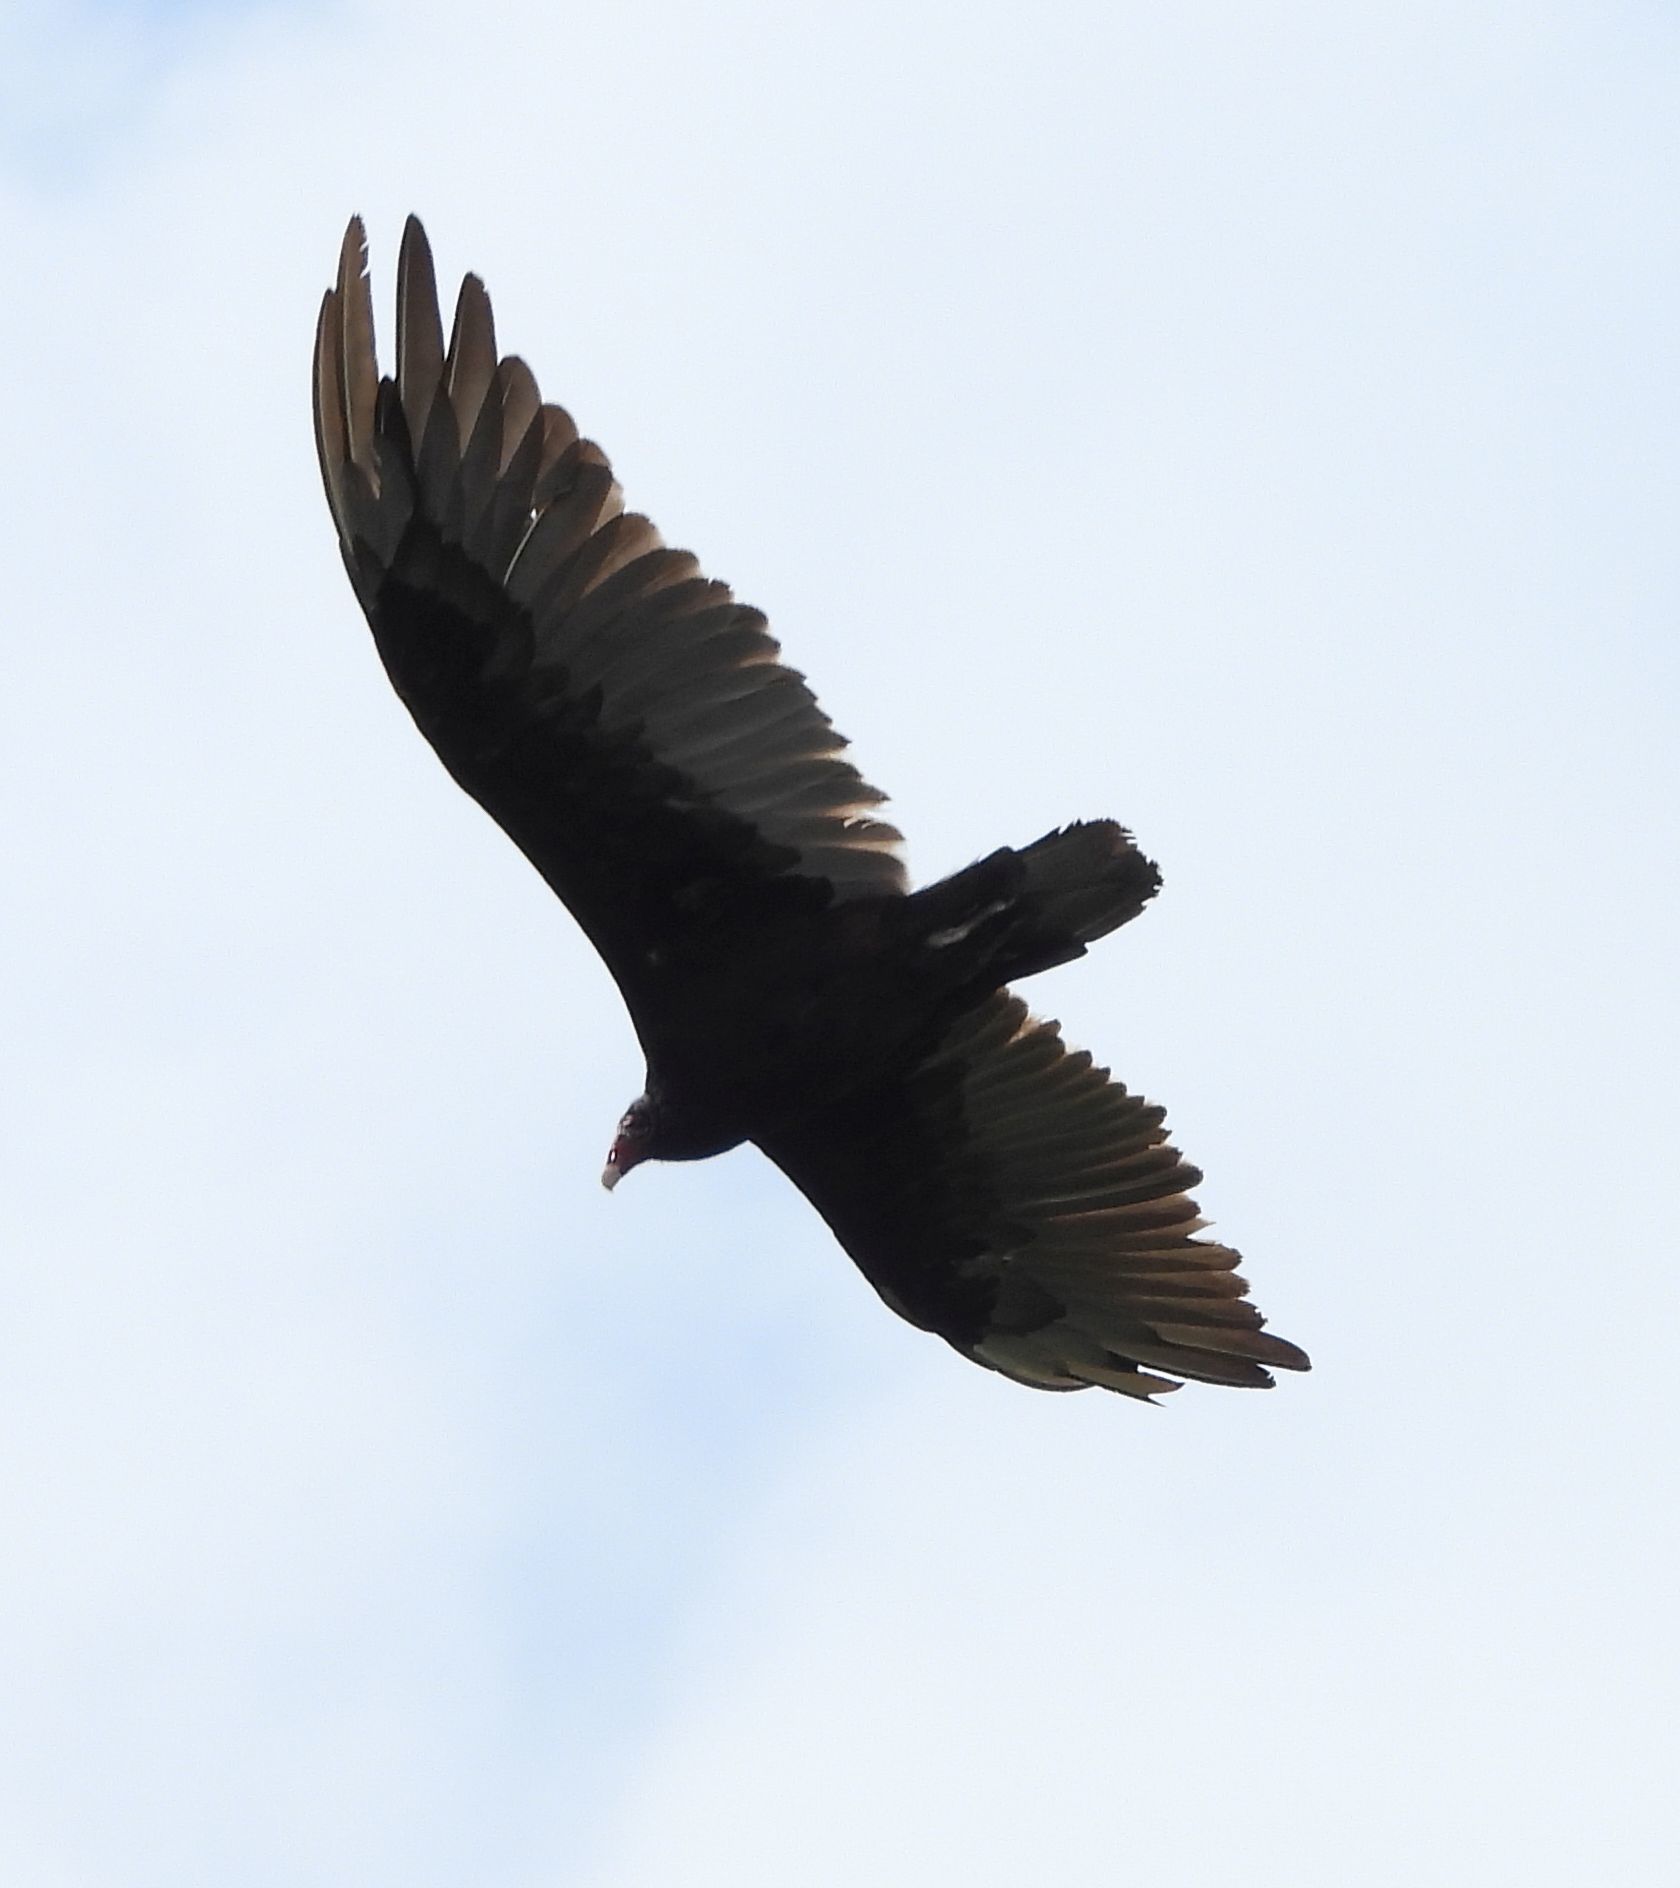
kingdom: Animalia
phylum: Chordata
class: Aves
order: Accipitriformes
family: Cathartidae
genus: Cathartes
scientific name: Cathartes aura
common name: Turkey vulture
